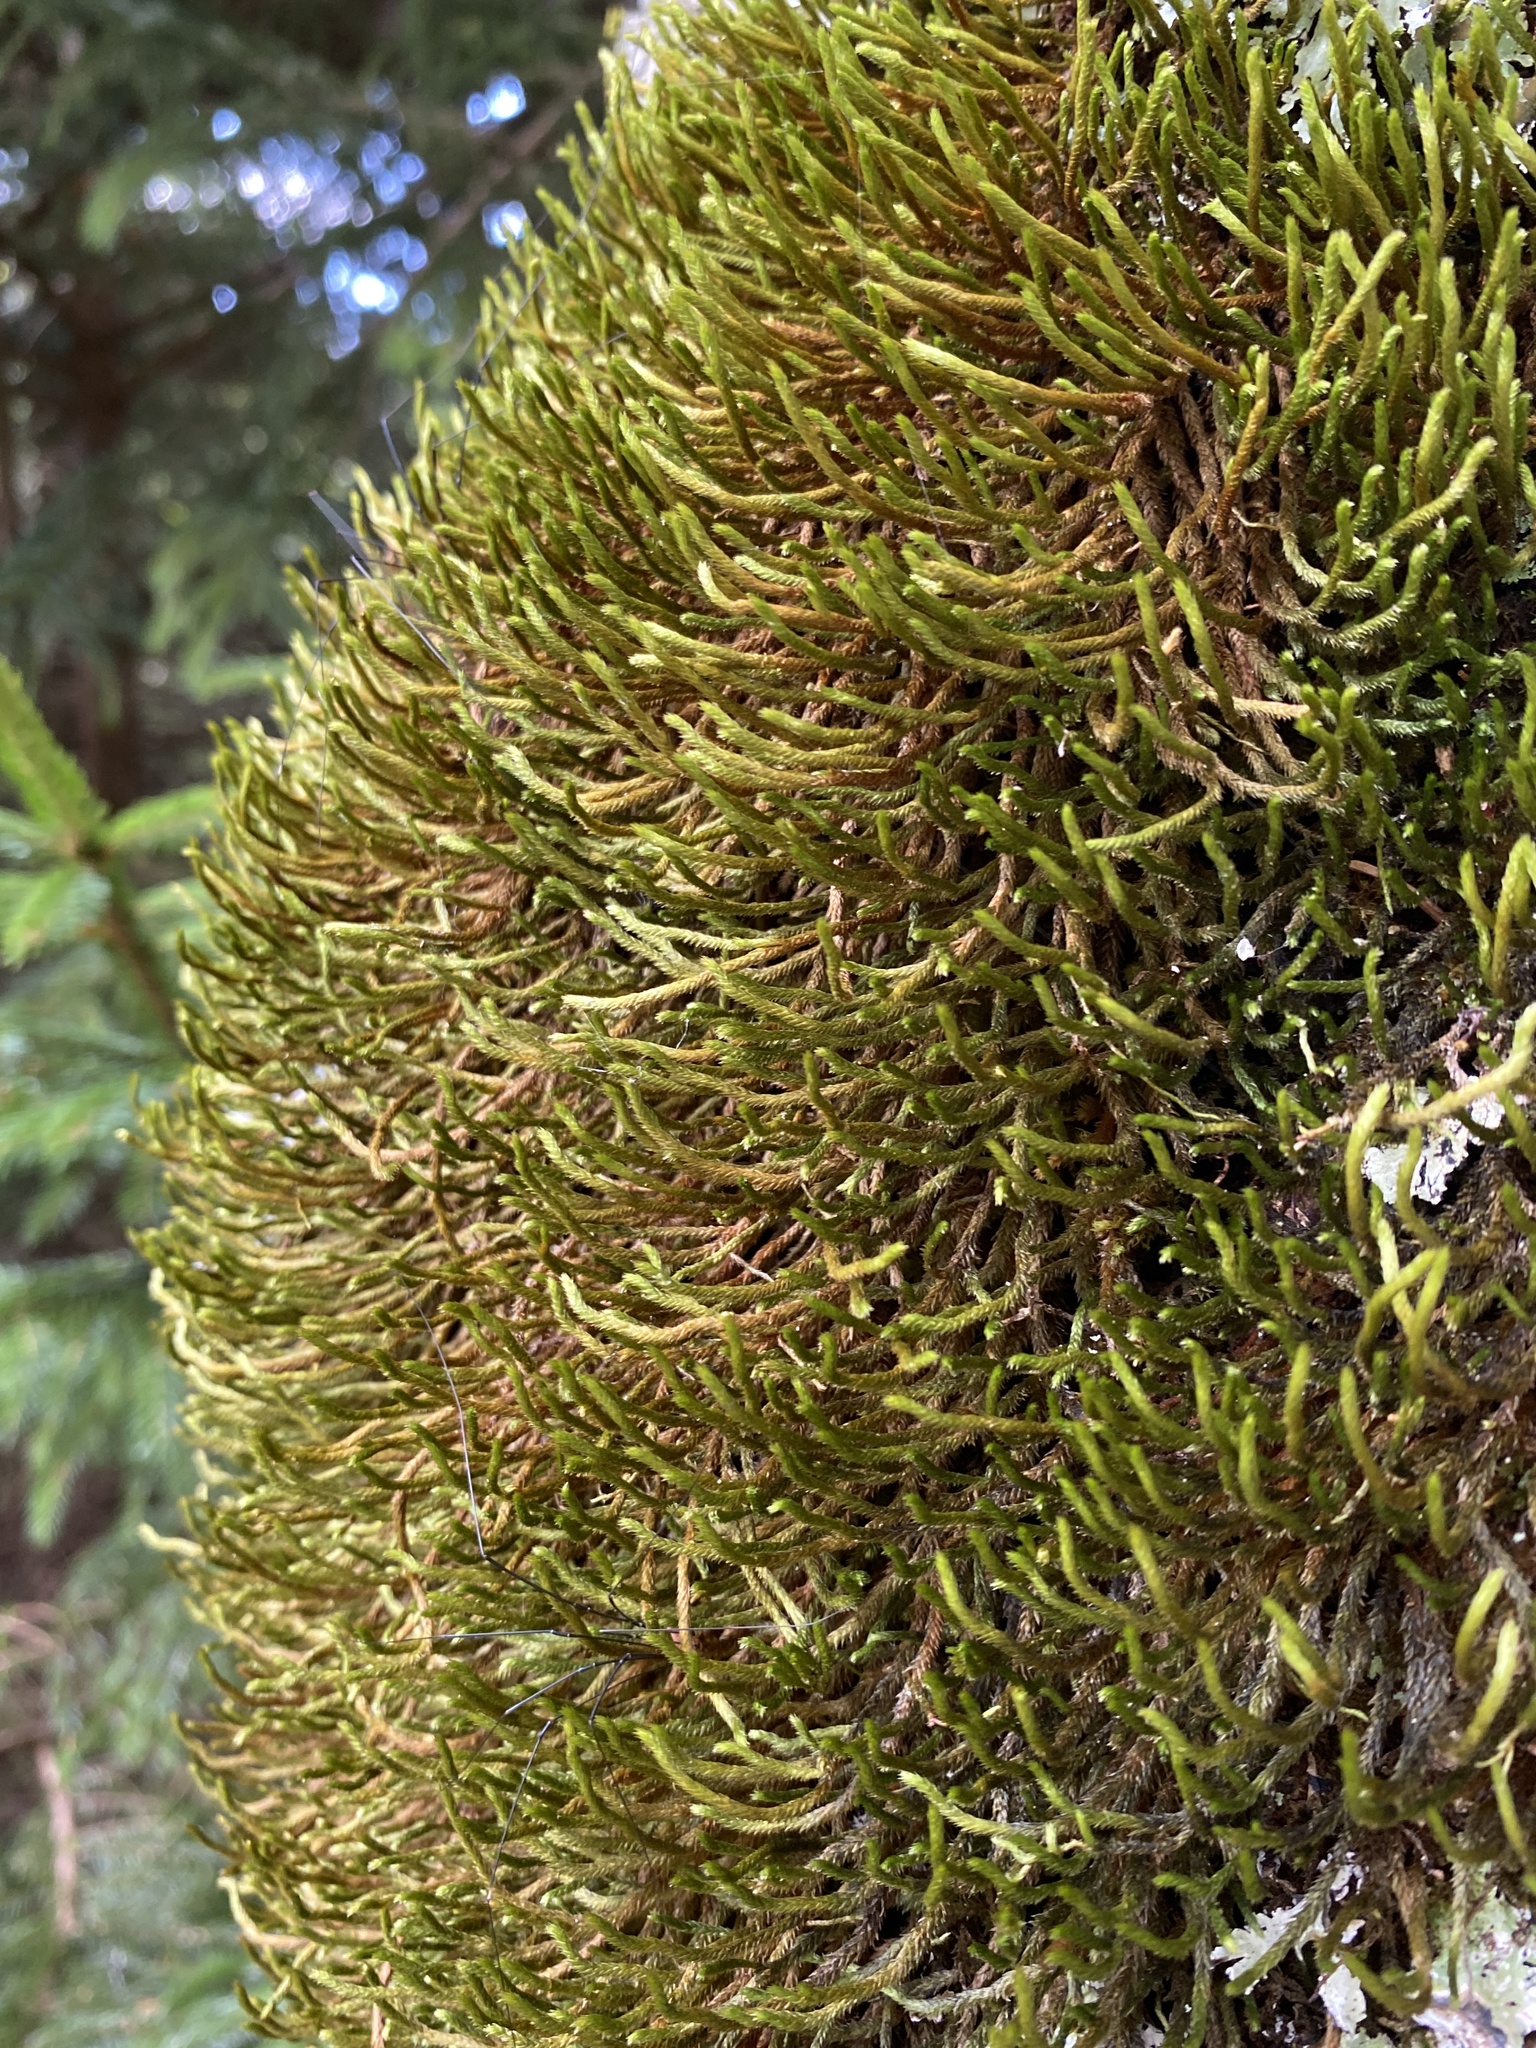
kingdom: Plantae
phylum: Bryophyta
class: Bryopsida
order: Hypnales
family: Leucodontaceae
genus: Leucodon
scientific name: Leucodon julaceus
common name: Smooth hook moss
